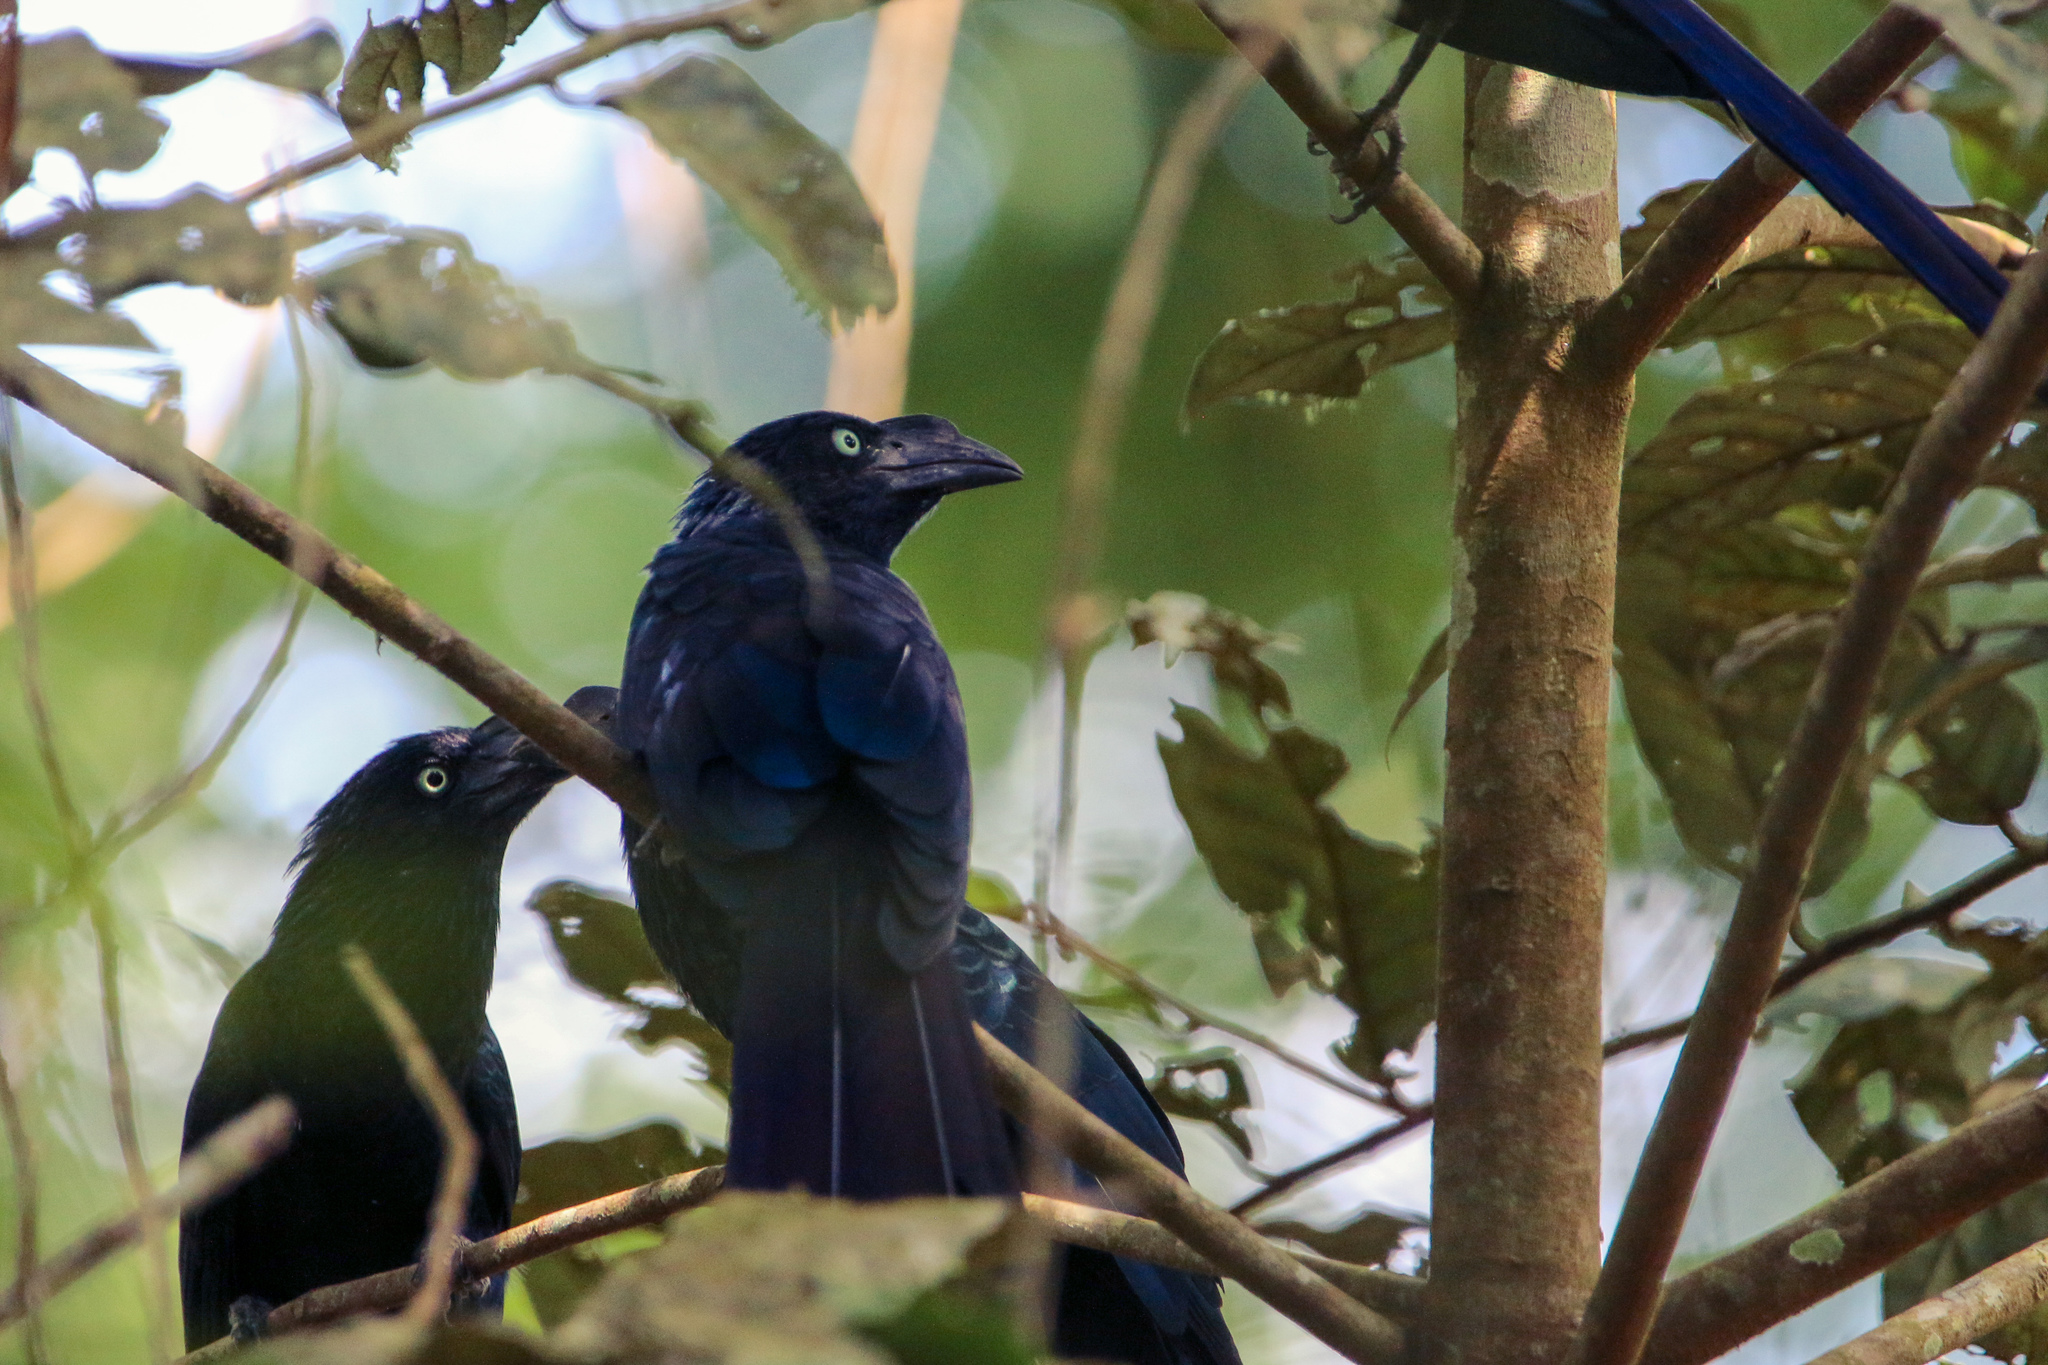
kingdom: Animalia
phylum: Chordata
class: Aves
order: Cuculiformes
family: Cuculidae
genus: Crotophaga
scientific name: Crotophaga major
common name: Greater ani
